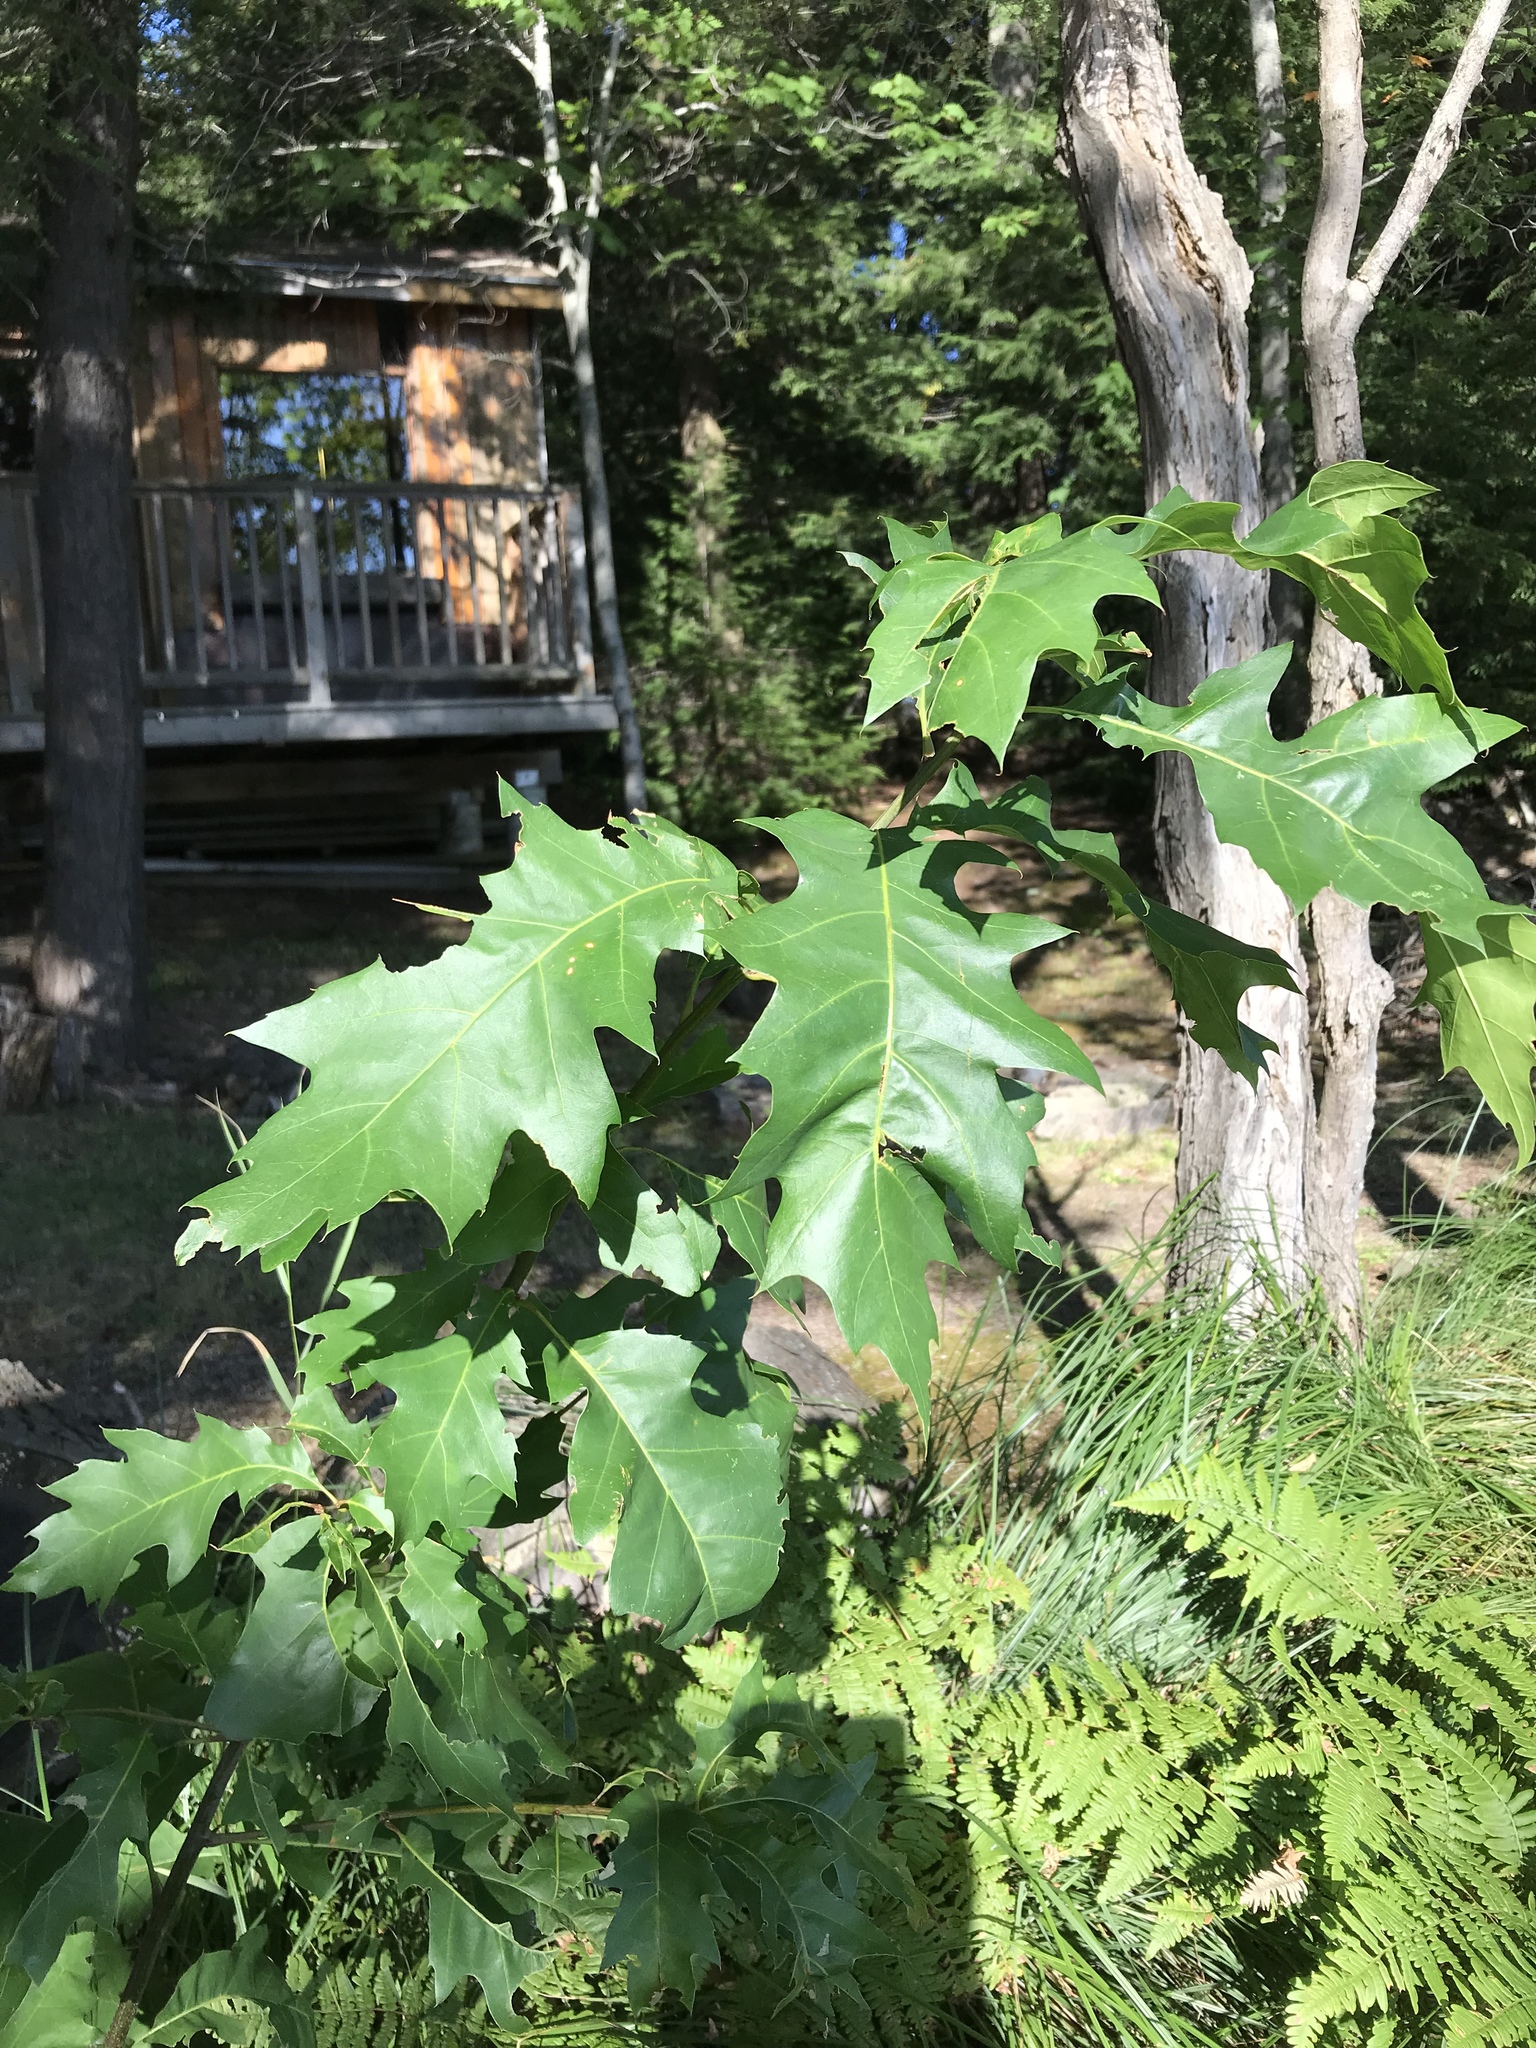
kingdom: Plantae
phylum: Tracheophyta
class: Magnoliopsida
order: Fagales
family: Fagaceae
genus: Quercus
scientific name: Quercus rubra
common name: Red oak
